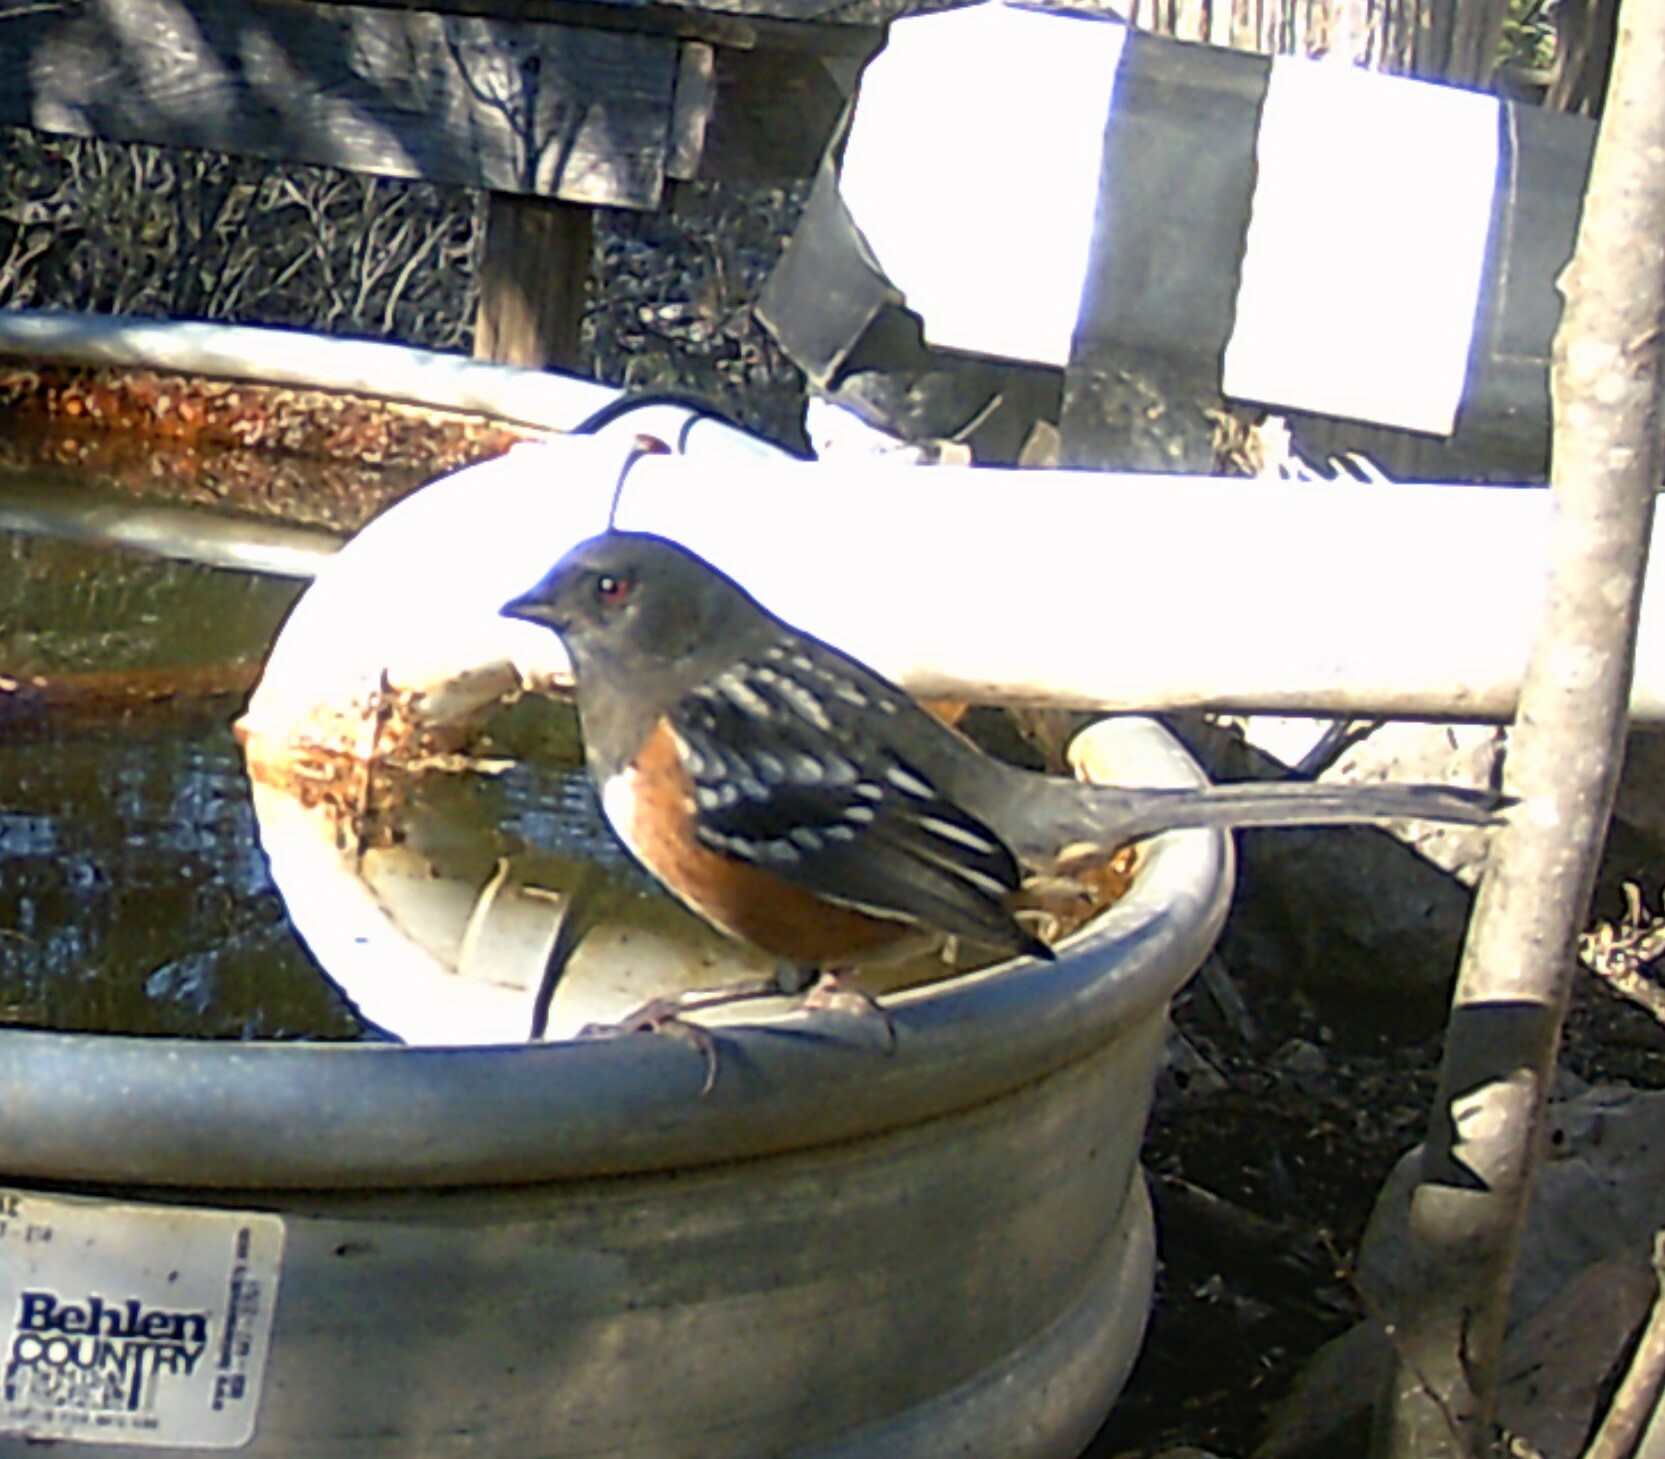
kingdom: Animalia
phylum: Chordata
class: Aves
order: Passeriformes
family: Passerellidae
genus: Pipilo
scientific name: Pipilo maculatus
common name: Spotted towhee
